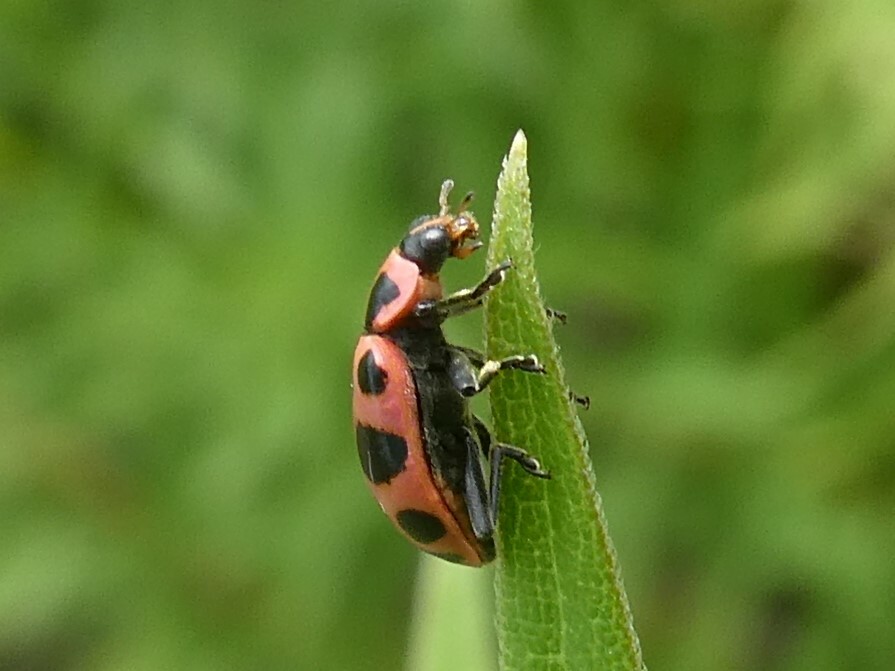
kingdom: Animalia
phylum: Arthropoda
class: Insecta
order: Coleoptera
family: Coccinellidae
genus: Coleomegilla
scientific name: Coleomegilla maculata
